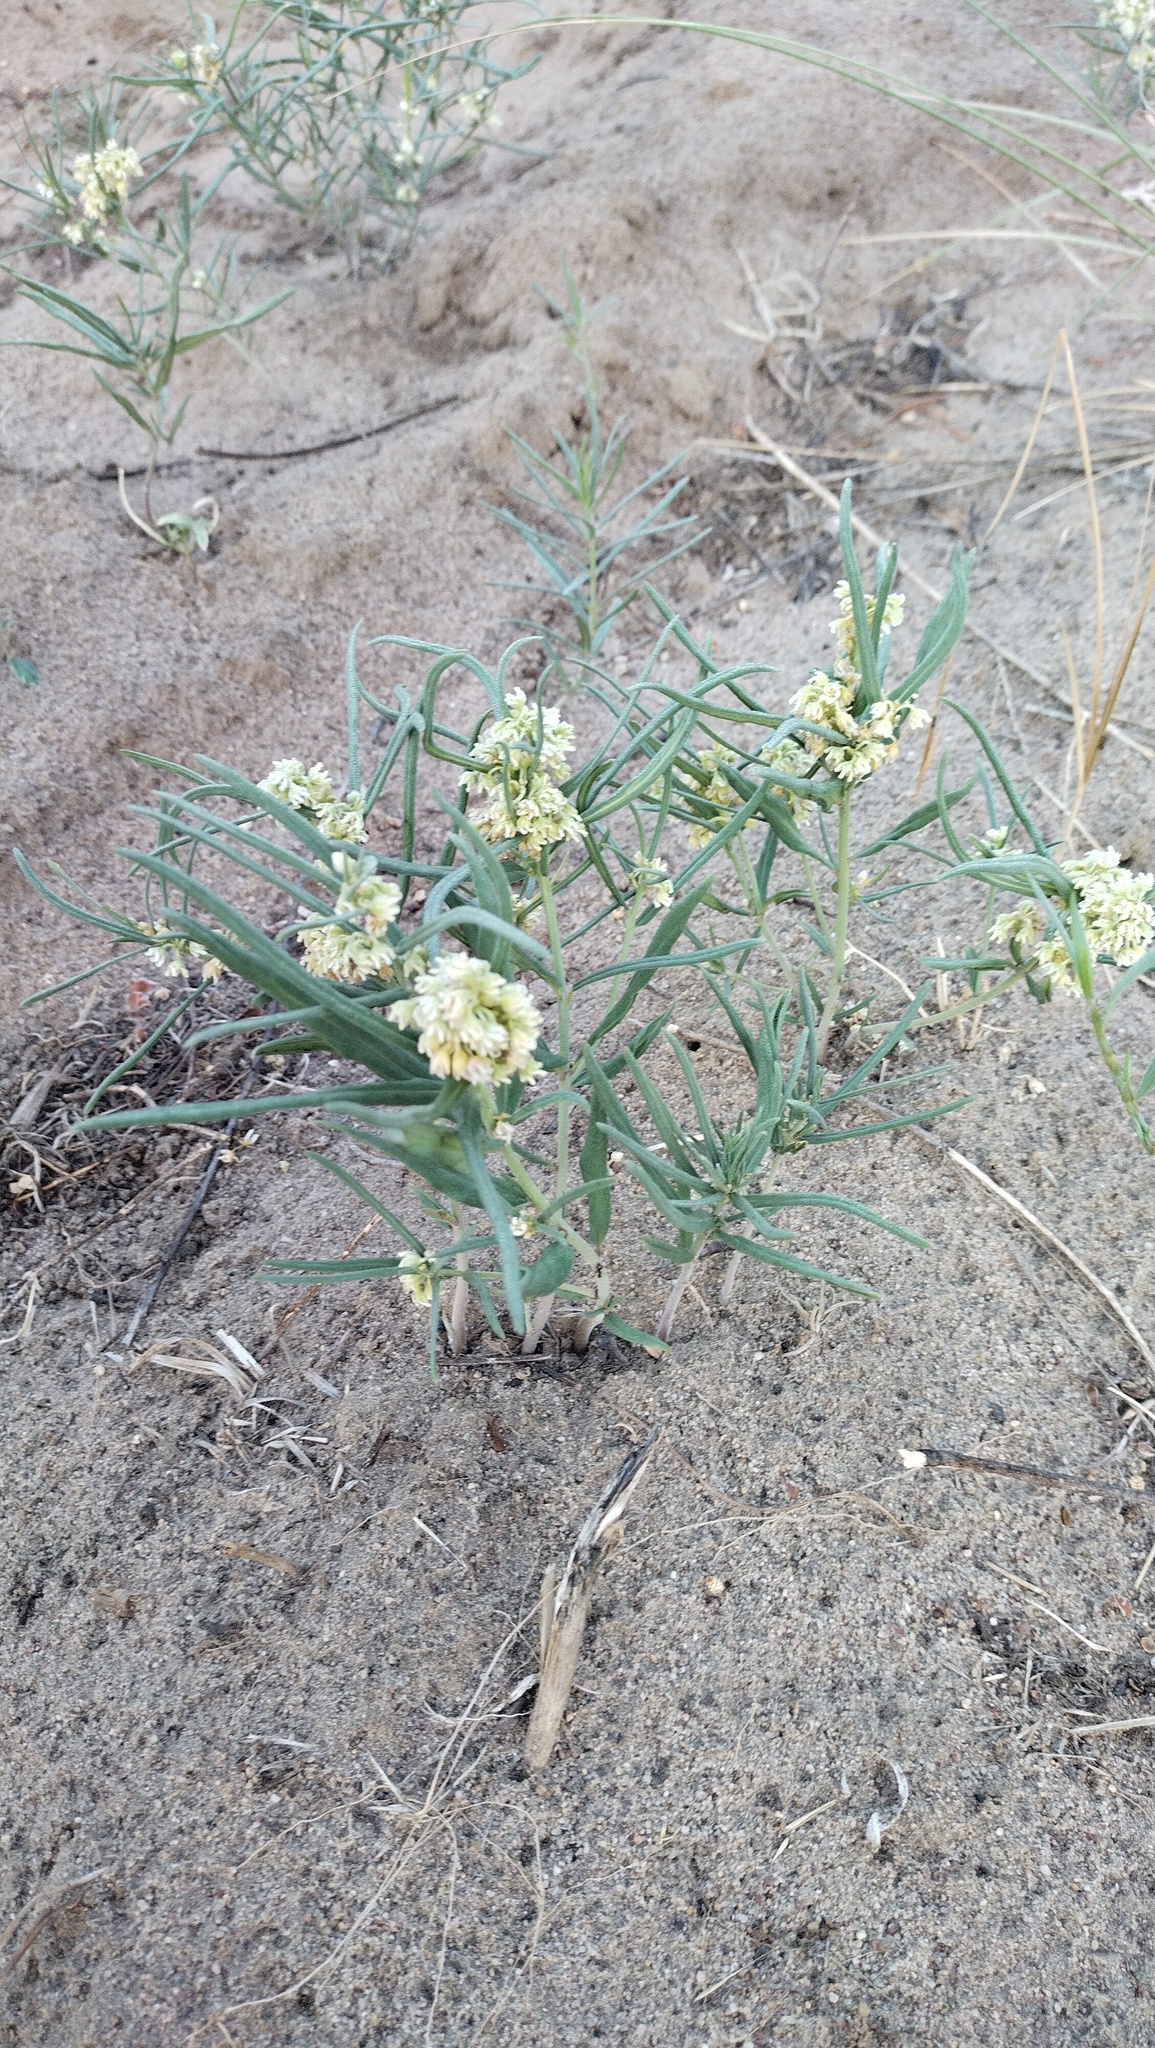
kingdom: Plantae
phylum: Tracheophyta
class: Magnoliopsida
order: Gentianales
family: Apocynaceae
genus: Cynanchum
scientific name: Cynanchum thesioides
